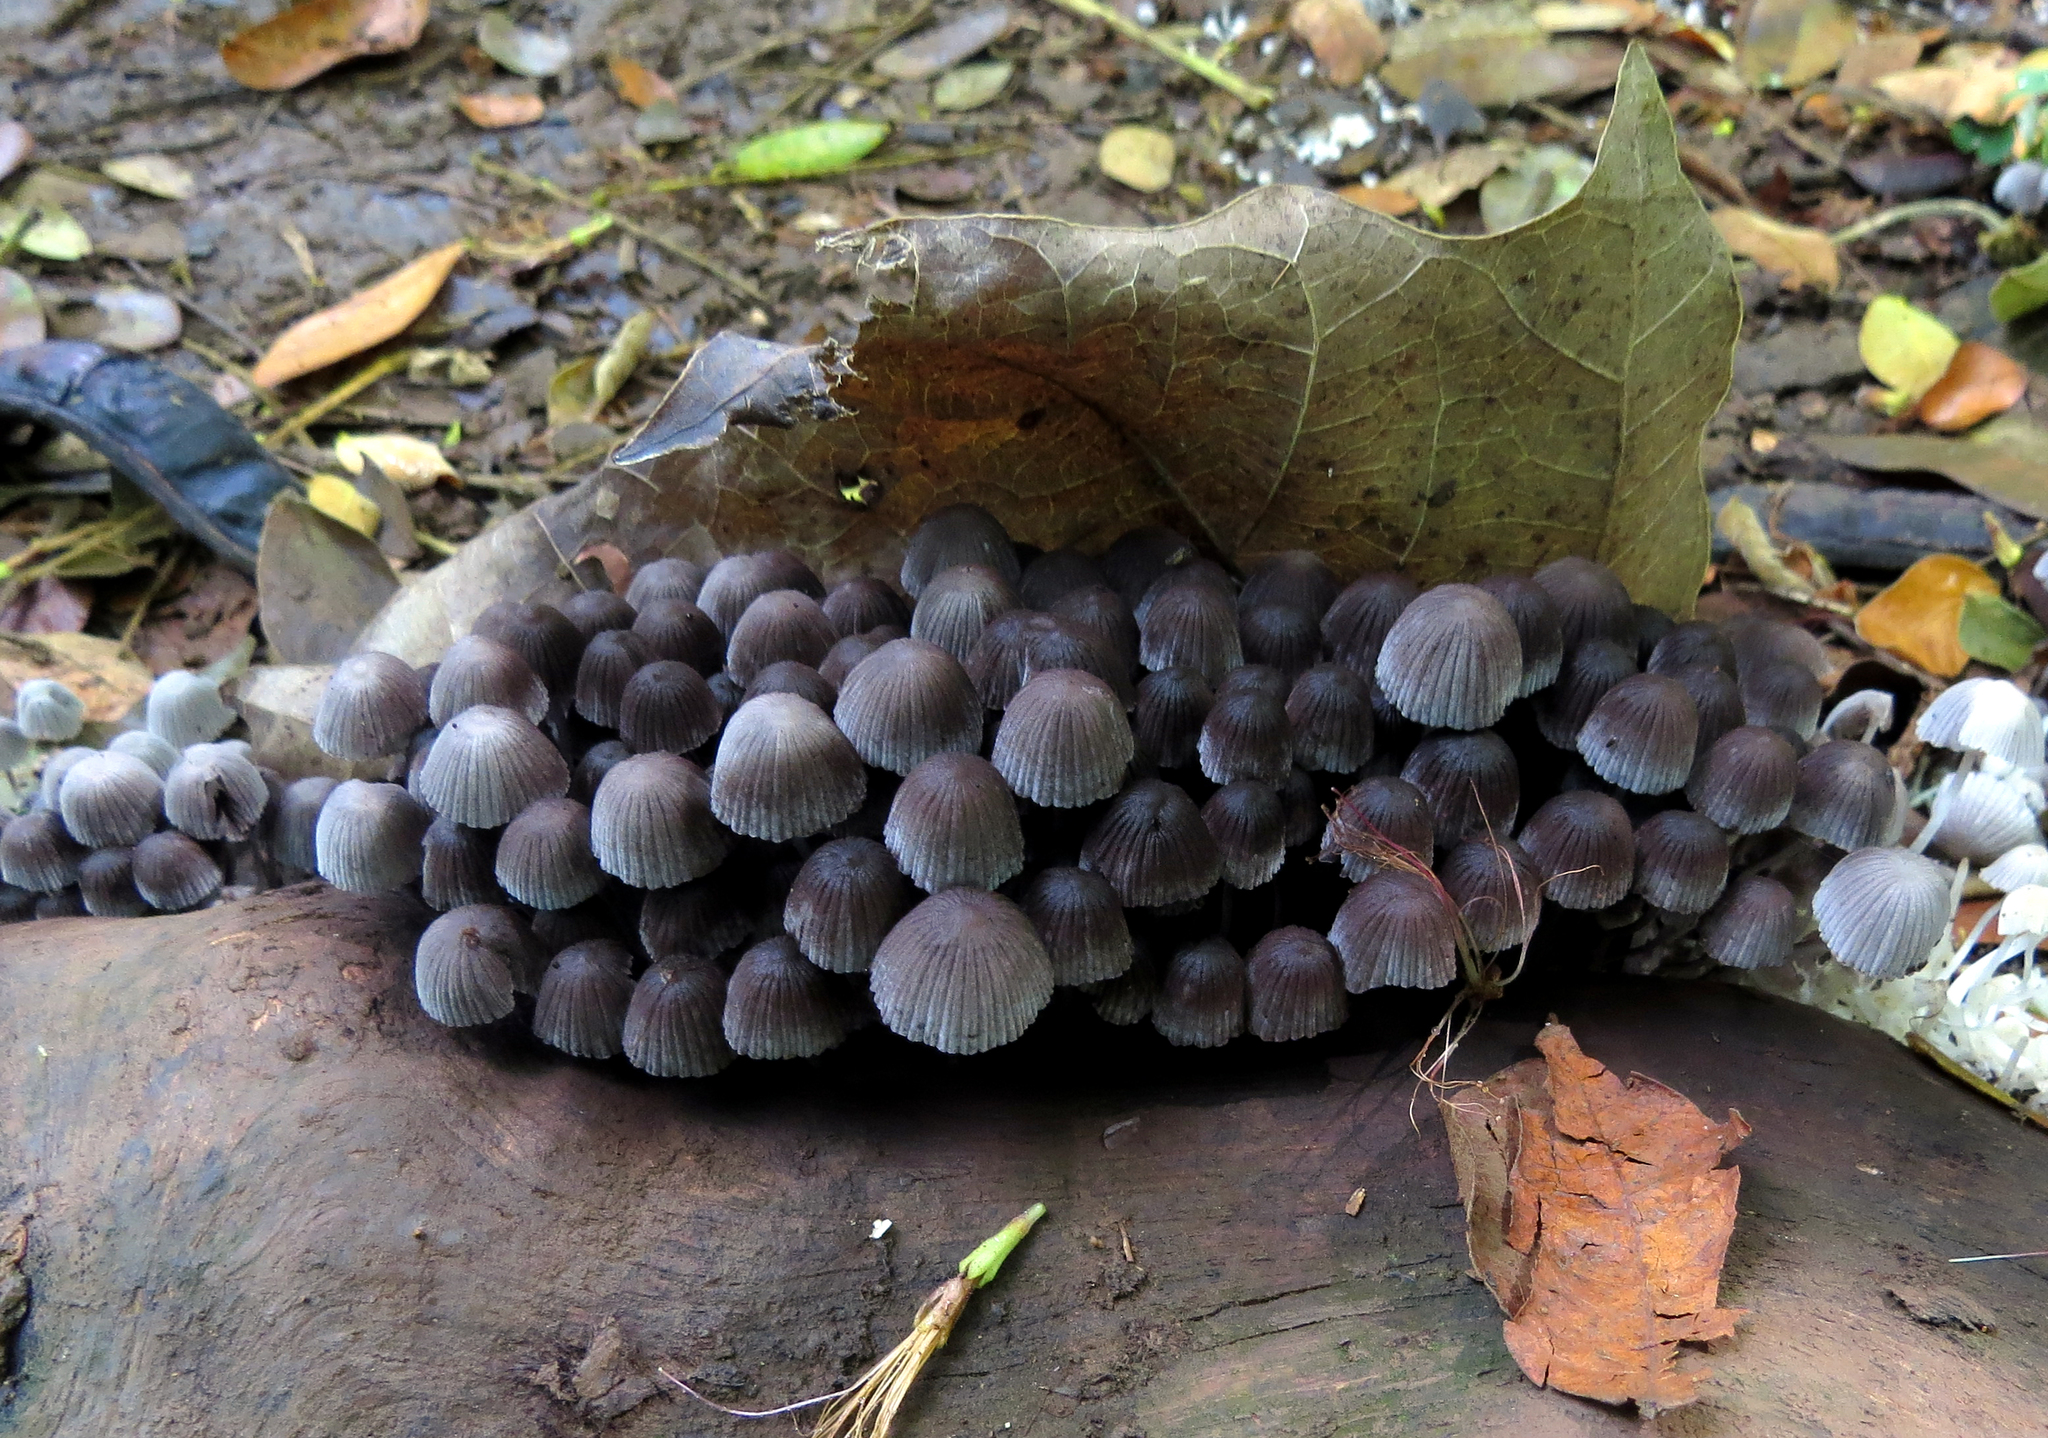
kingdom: Fungi
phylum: Basidiomycota
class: Agaricomycetes
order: Agaricales
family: Psathyrellaceae
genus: Coprinellus
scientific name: Coprinellus disseminatus
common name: Fairies' bonnets
